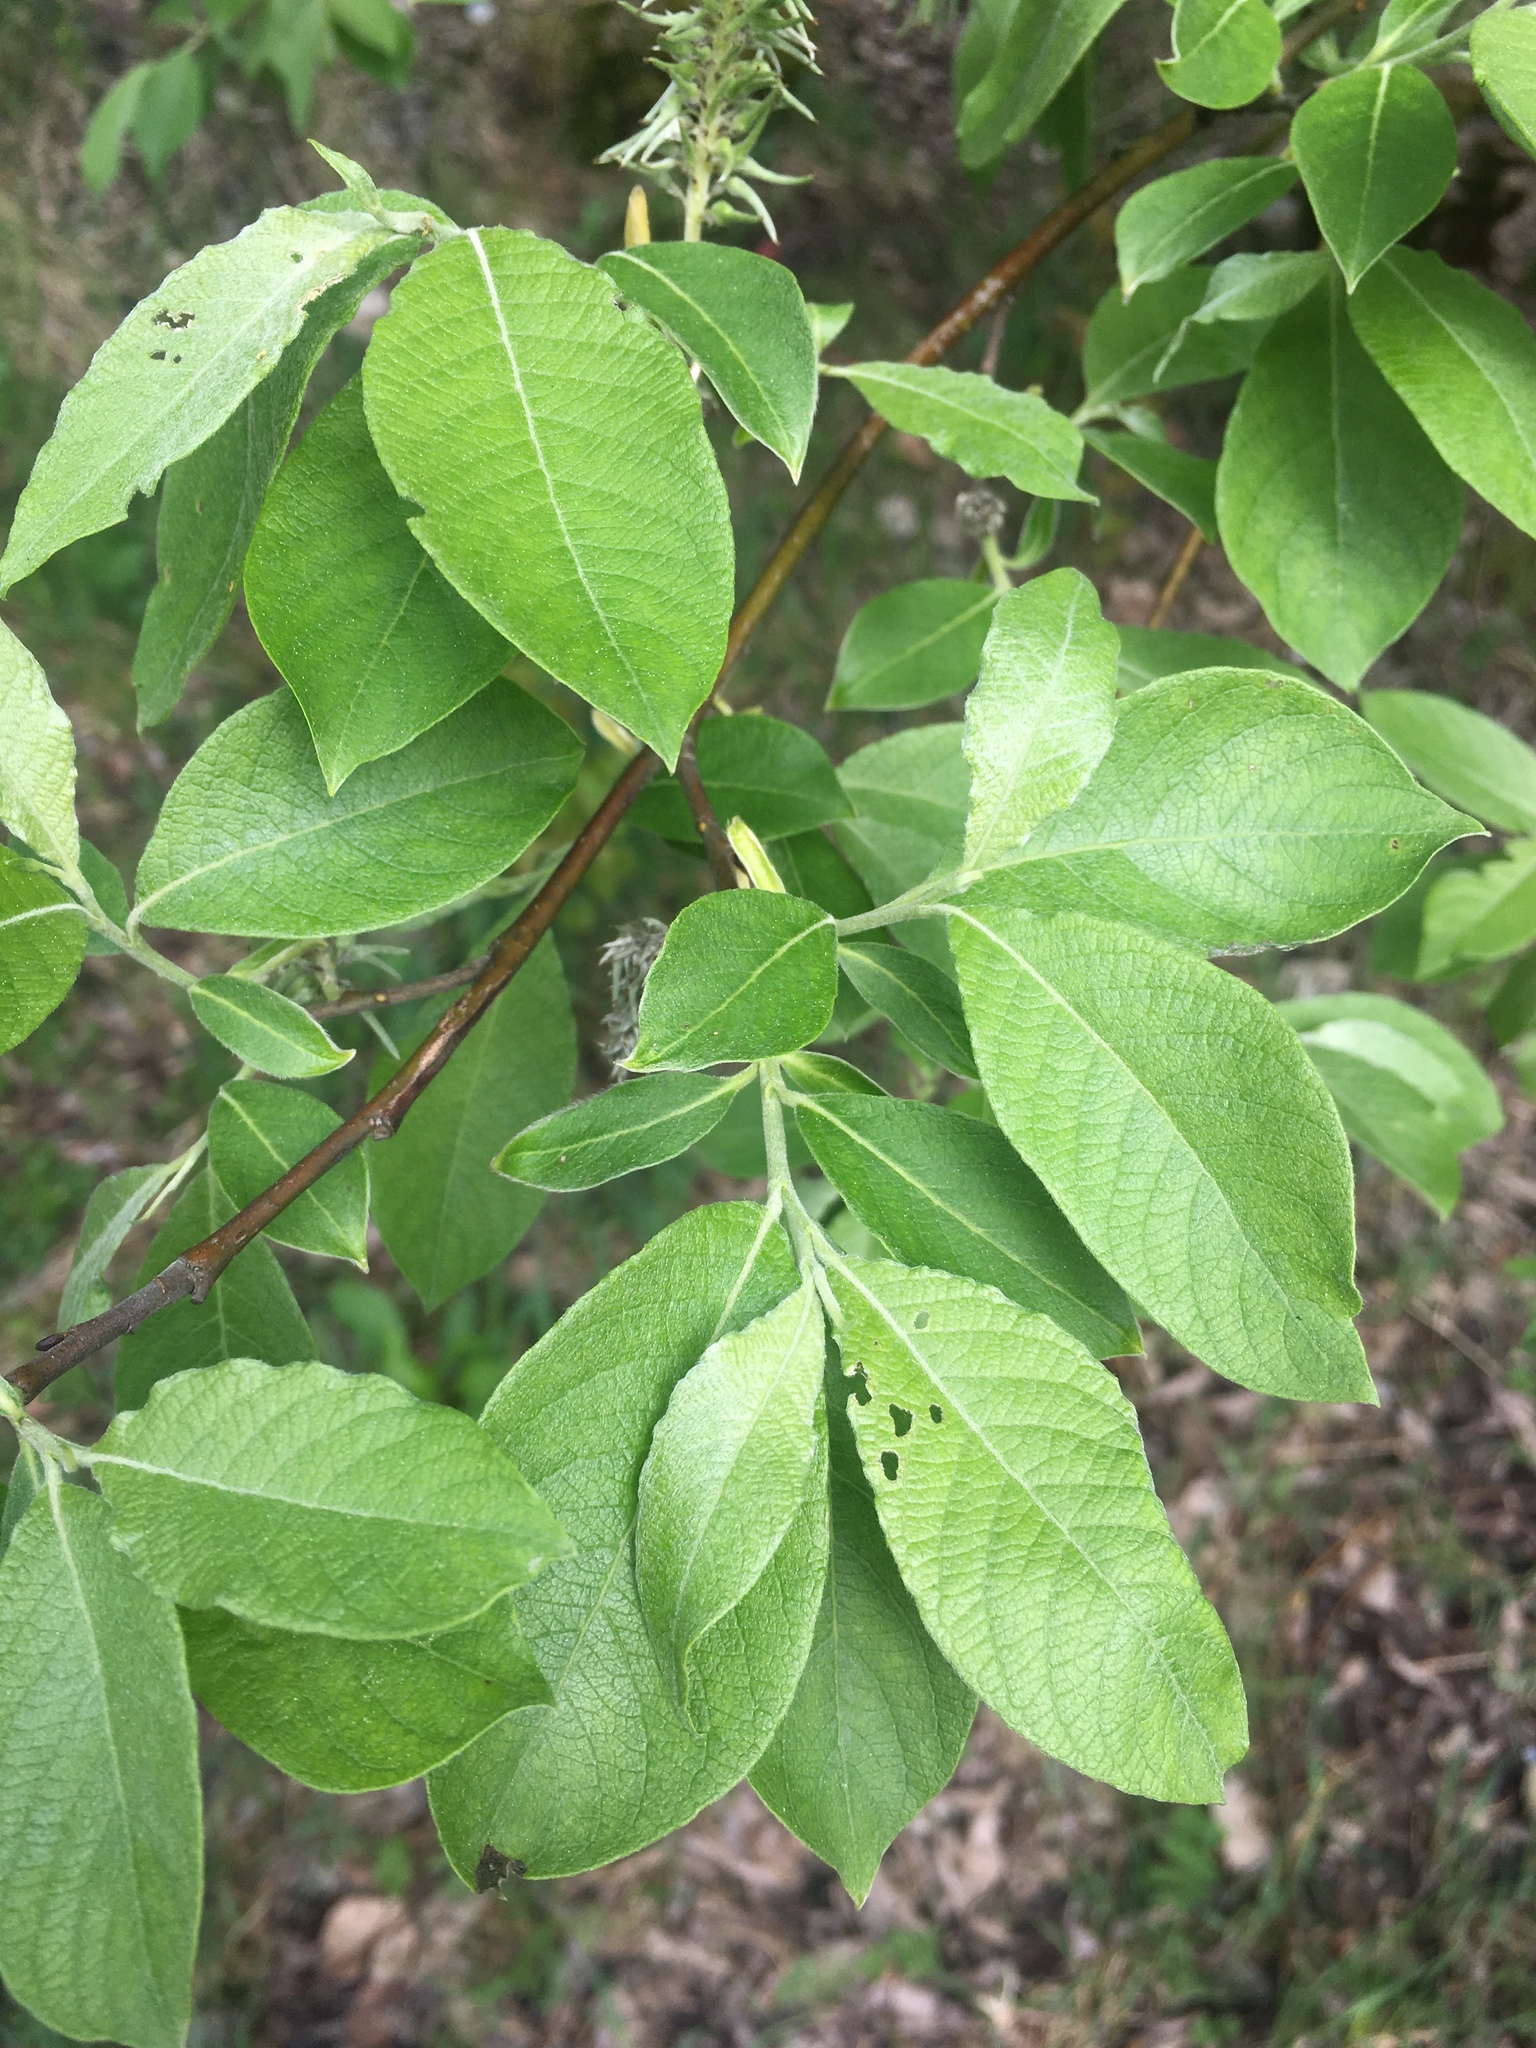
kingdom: Plantae
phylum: Tracheophyta
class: Magnoliopsida
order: Malpighiales
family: Salicaceae
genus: Salix
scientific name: Salix caprea
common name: Goat willow
